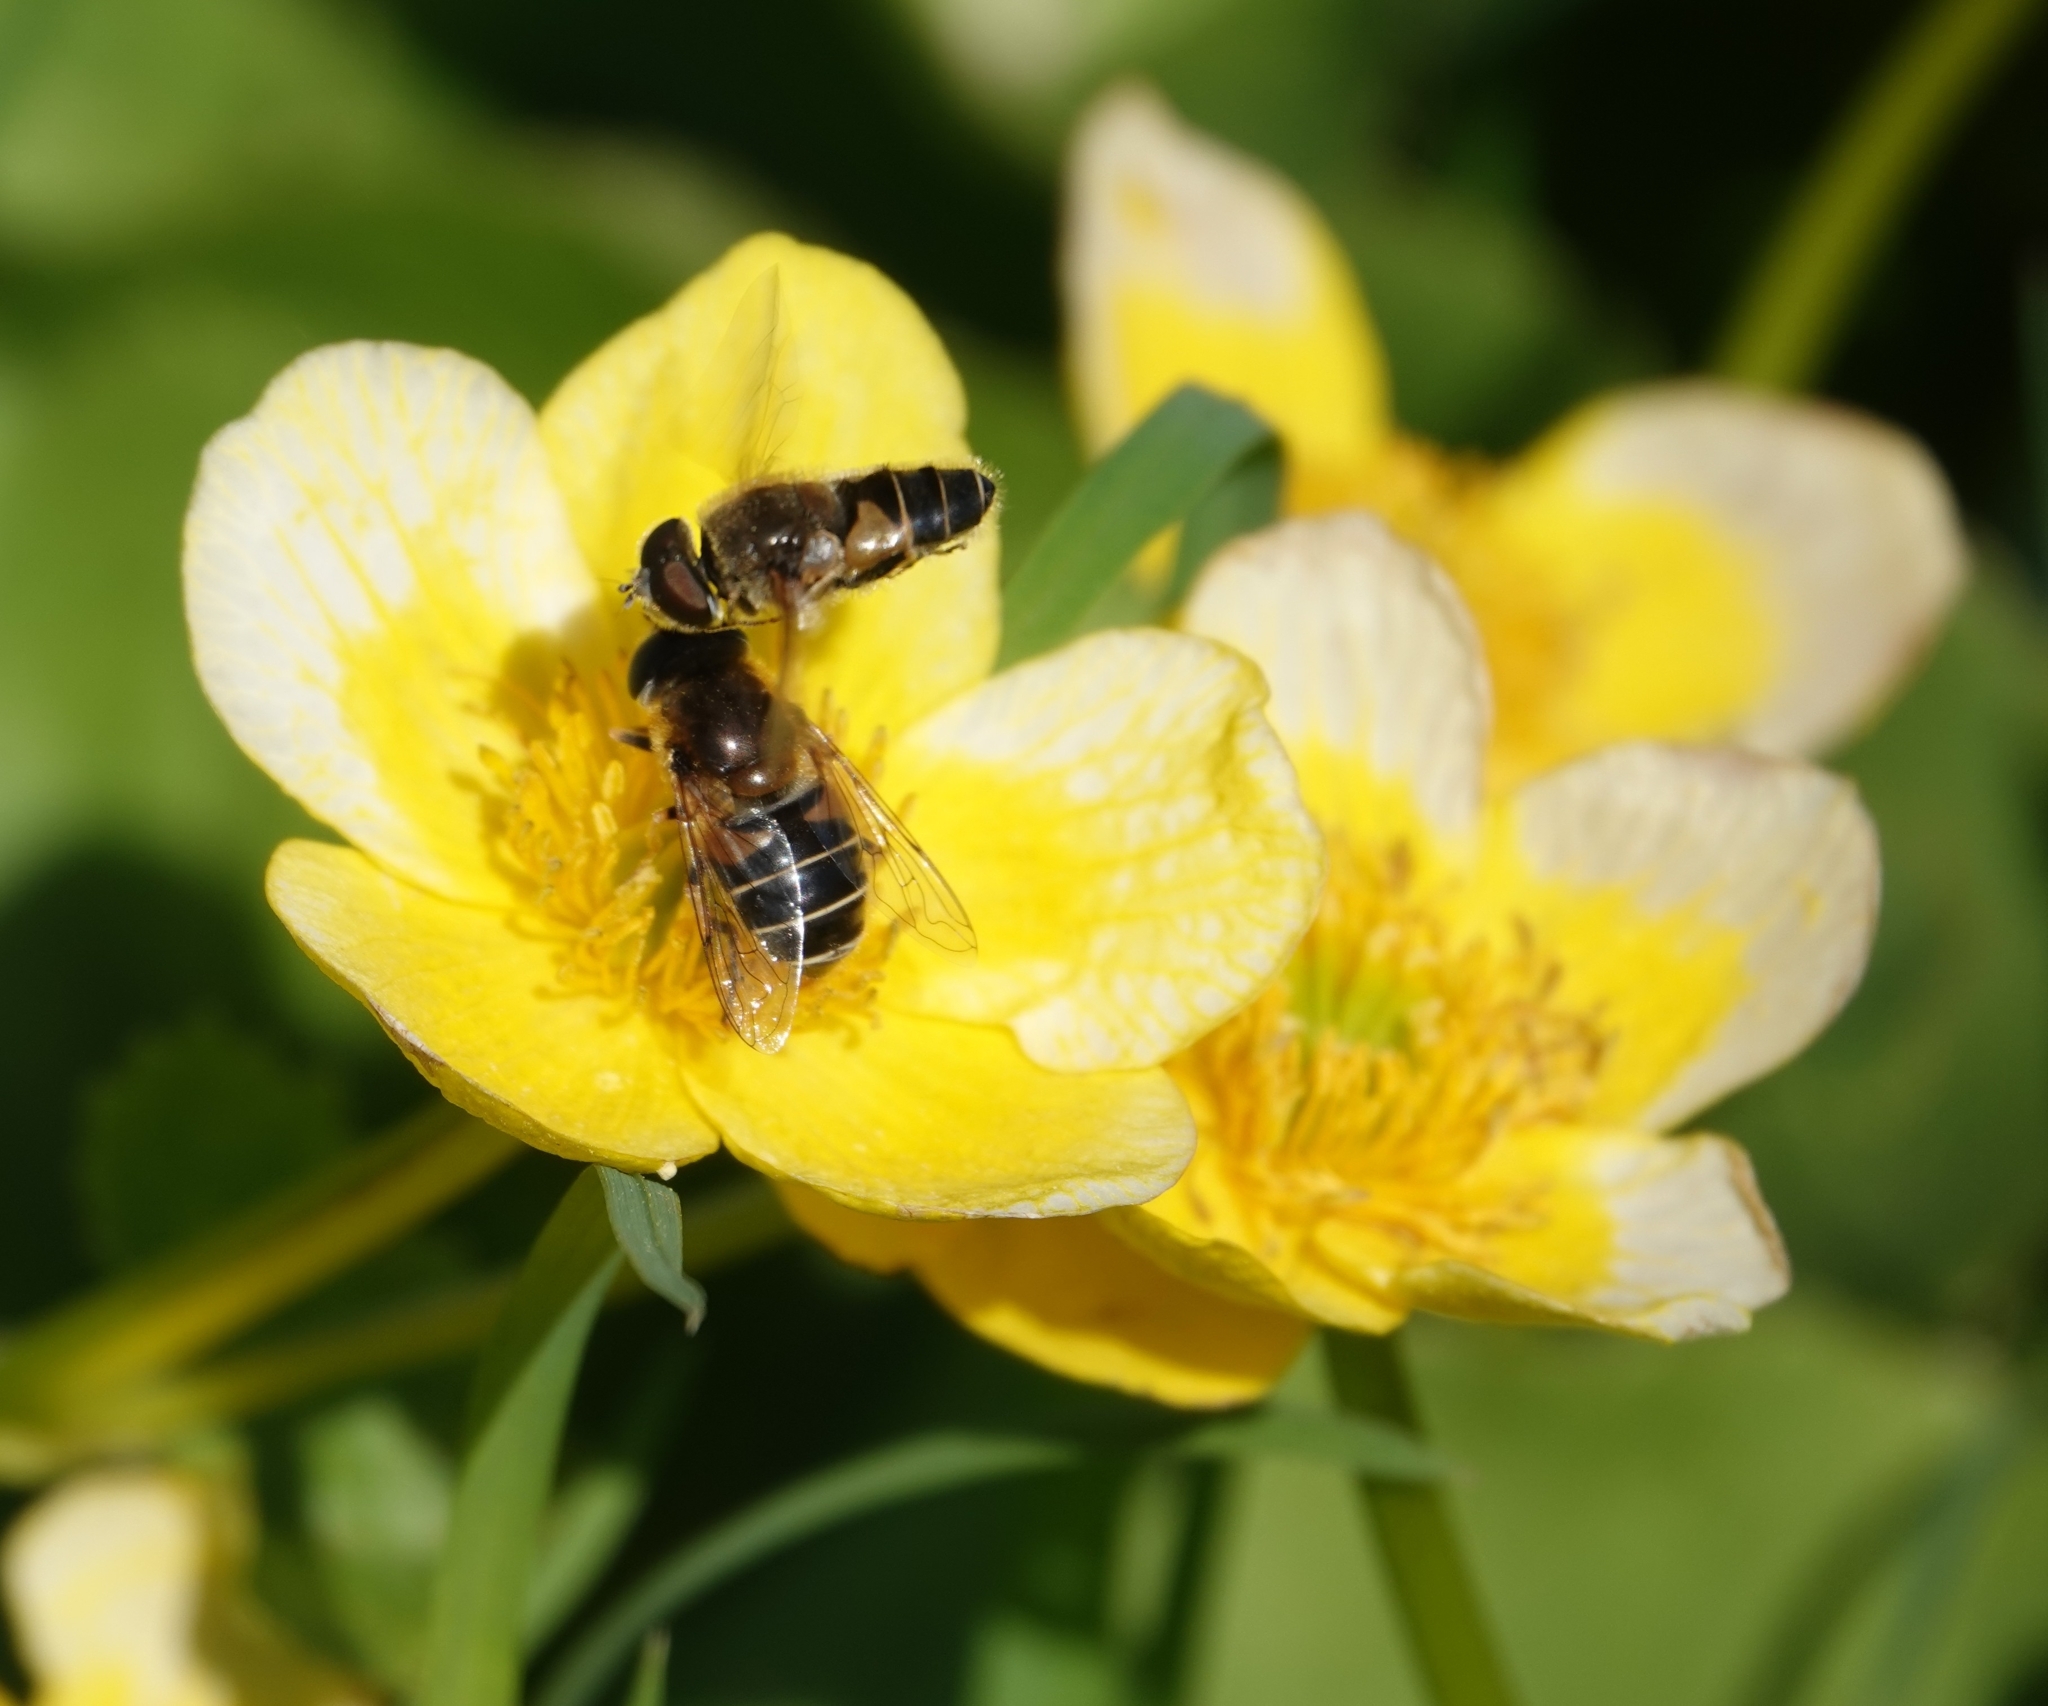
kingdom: Animalia
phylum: Arthropoda
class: Insecta
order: Diptera
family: Syrphidae
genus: Eristalis
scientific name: Eristalis nemorum
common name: Orange-spined drone fly
